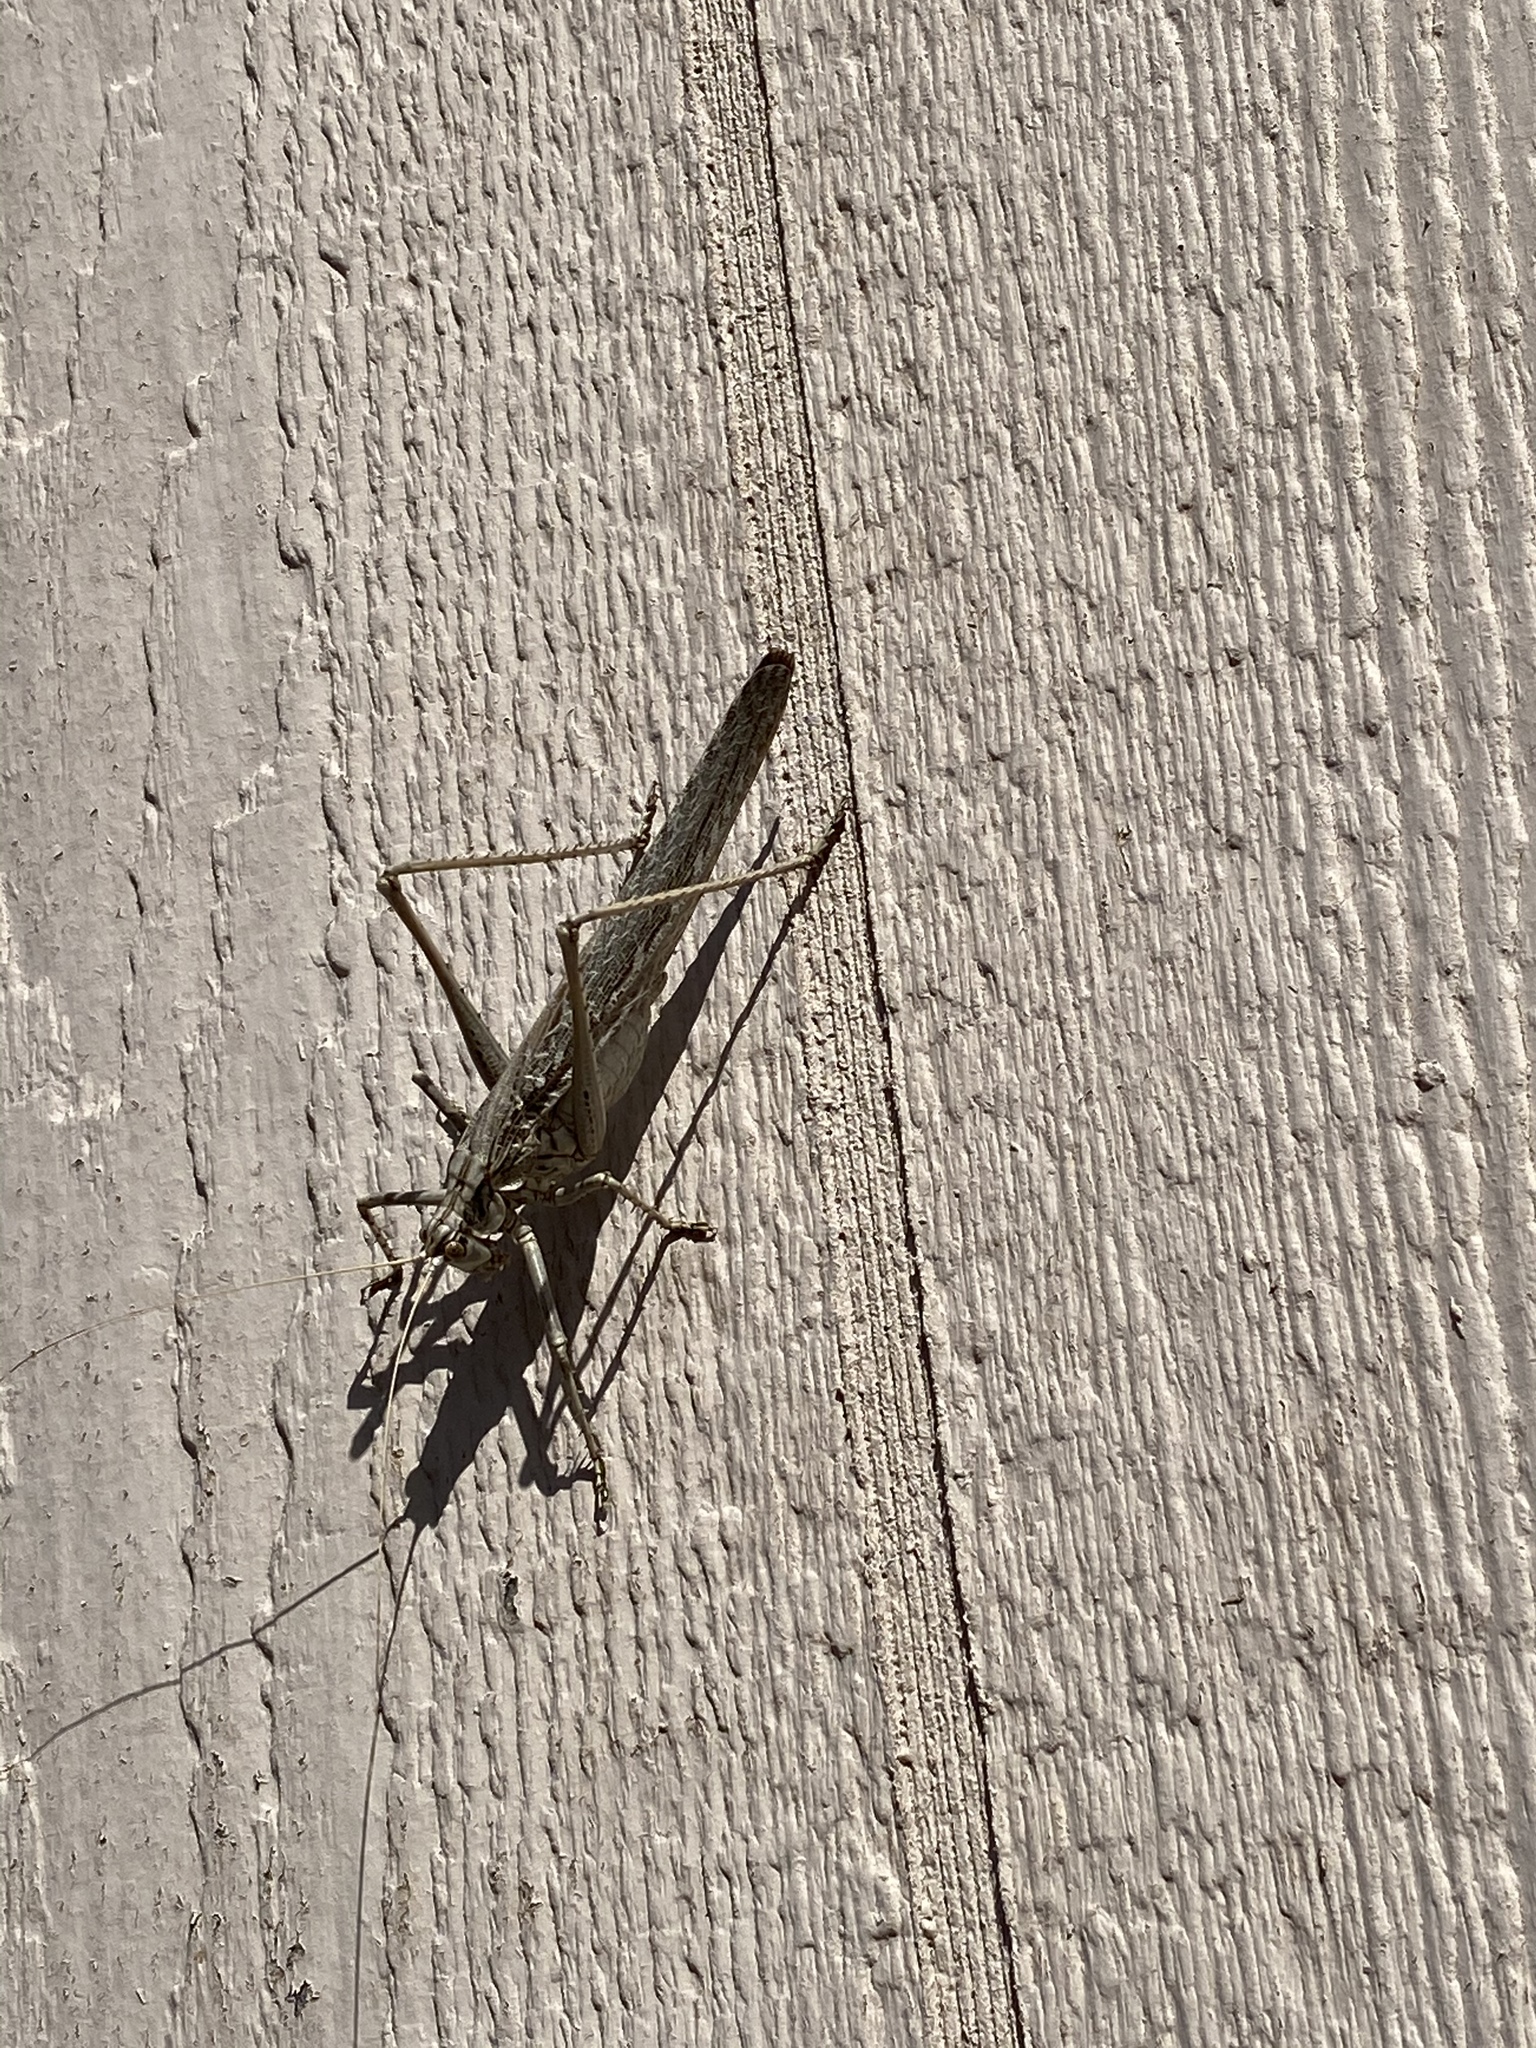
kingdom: Animalia
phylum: Arthropoda
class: Insecta
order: Orthoptera
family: Tettigoniidae
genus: Capnobotes
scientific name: Capnobotes fuliginosus
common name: Sooty longwing
